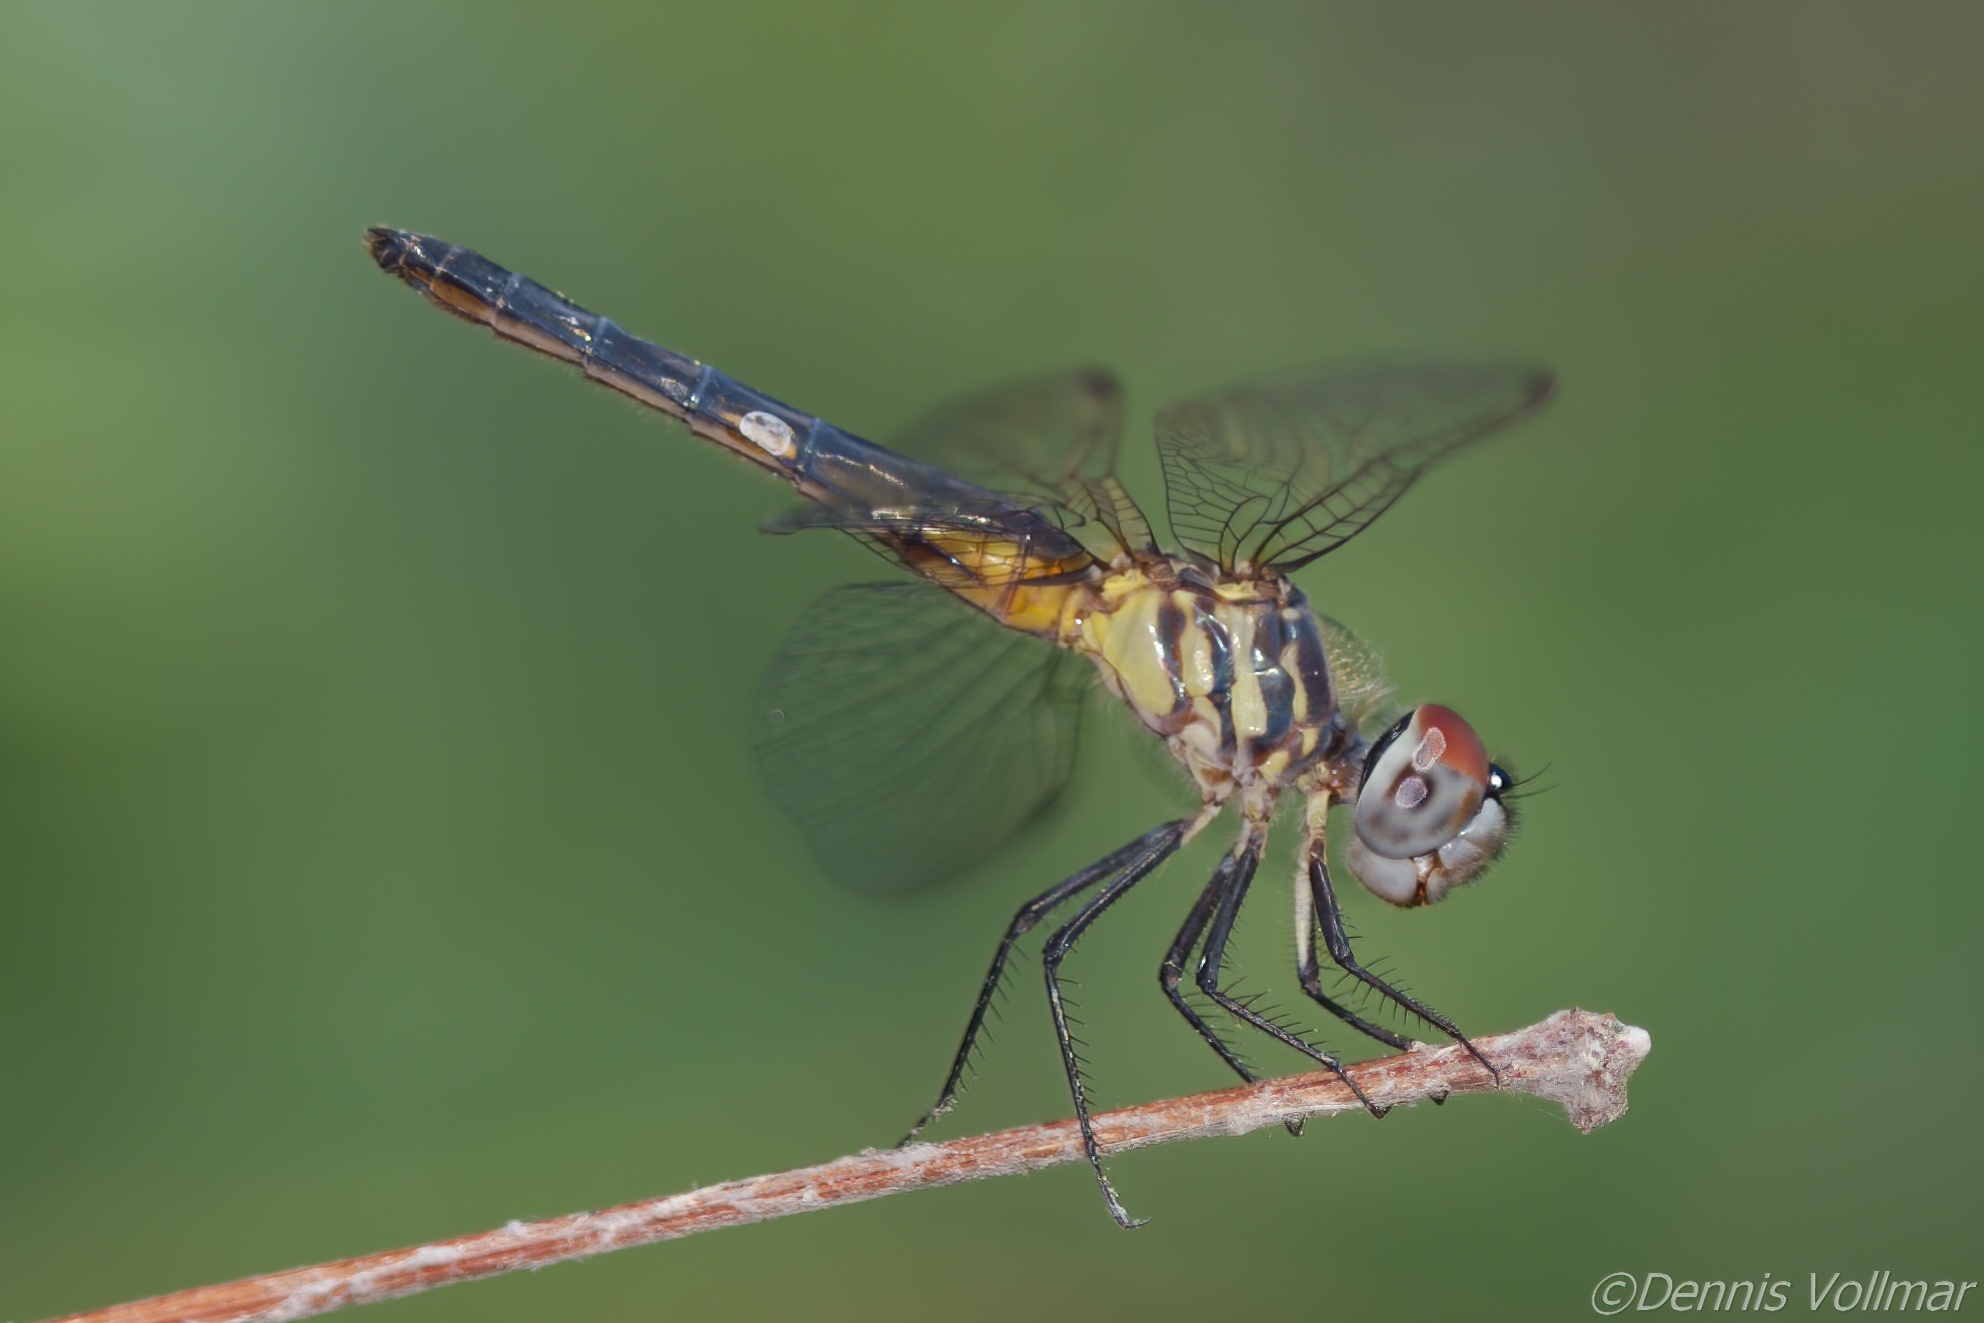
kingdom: Animalia
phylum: Arthropoda
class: Insecta
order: Odonata
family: Libellulidae
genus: Pachydiplax
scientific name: Pachydiplax longipennis
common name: Blue dasher
